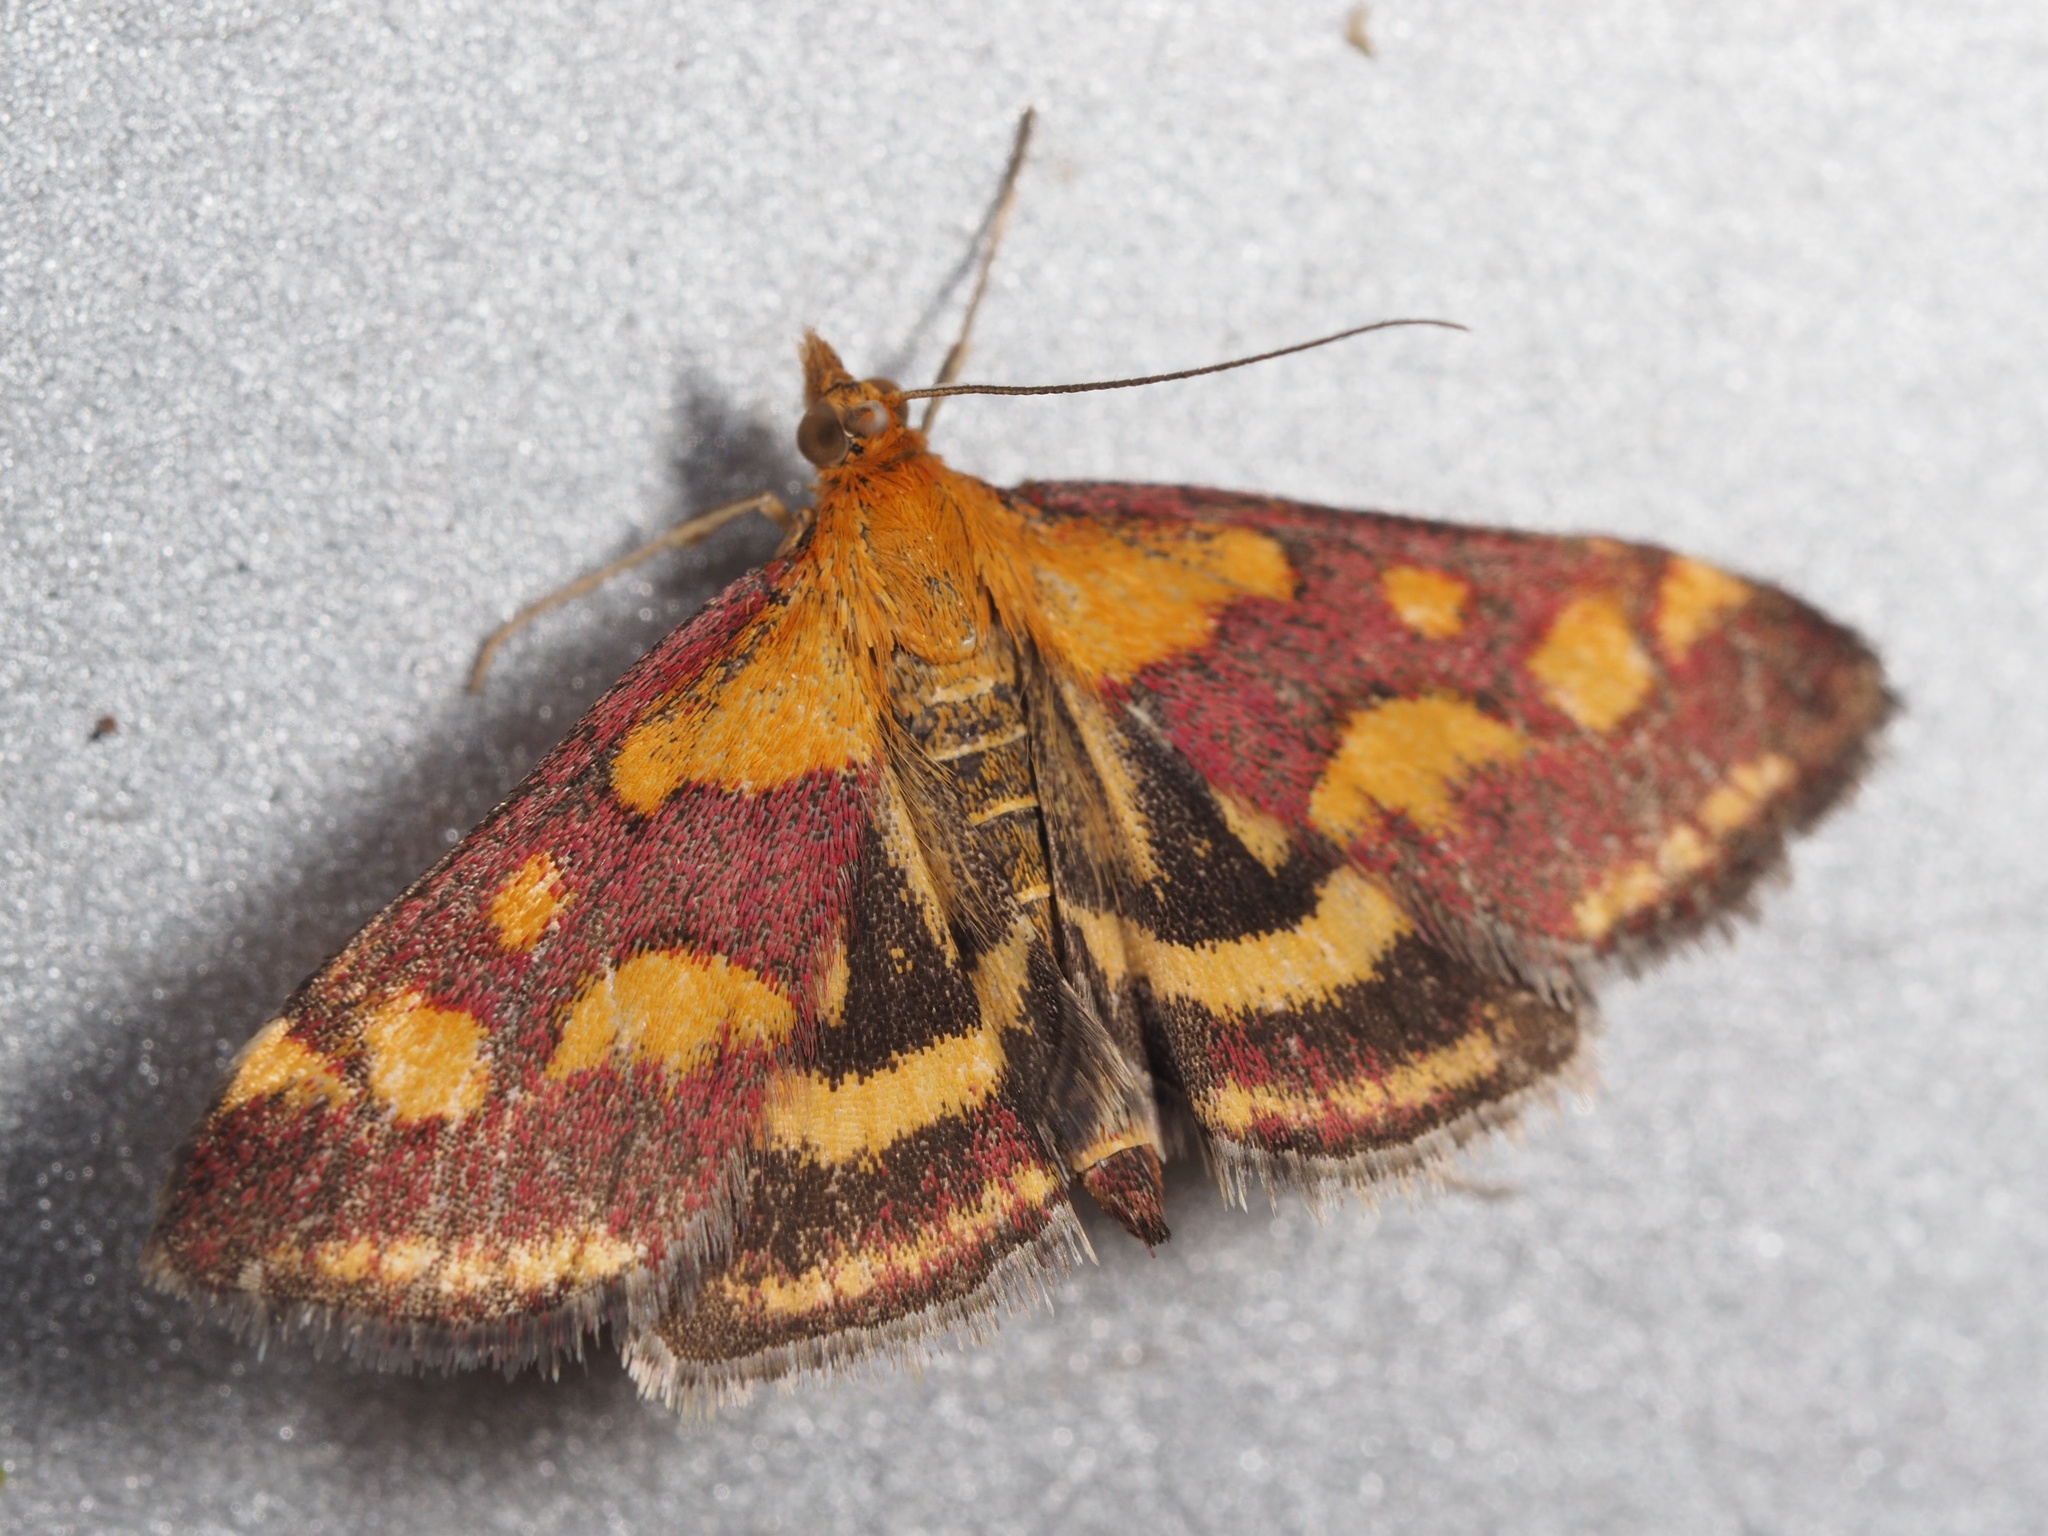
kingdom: Animalia
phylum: Arthropoda
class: Insecta
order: Lepidoptera
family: Crambidae
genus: Pyrausta
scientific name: Pyrausta purpuralis
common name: Common purple & gold
